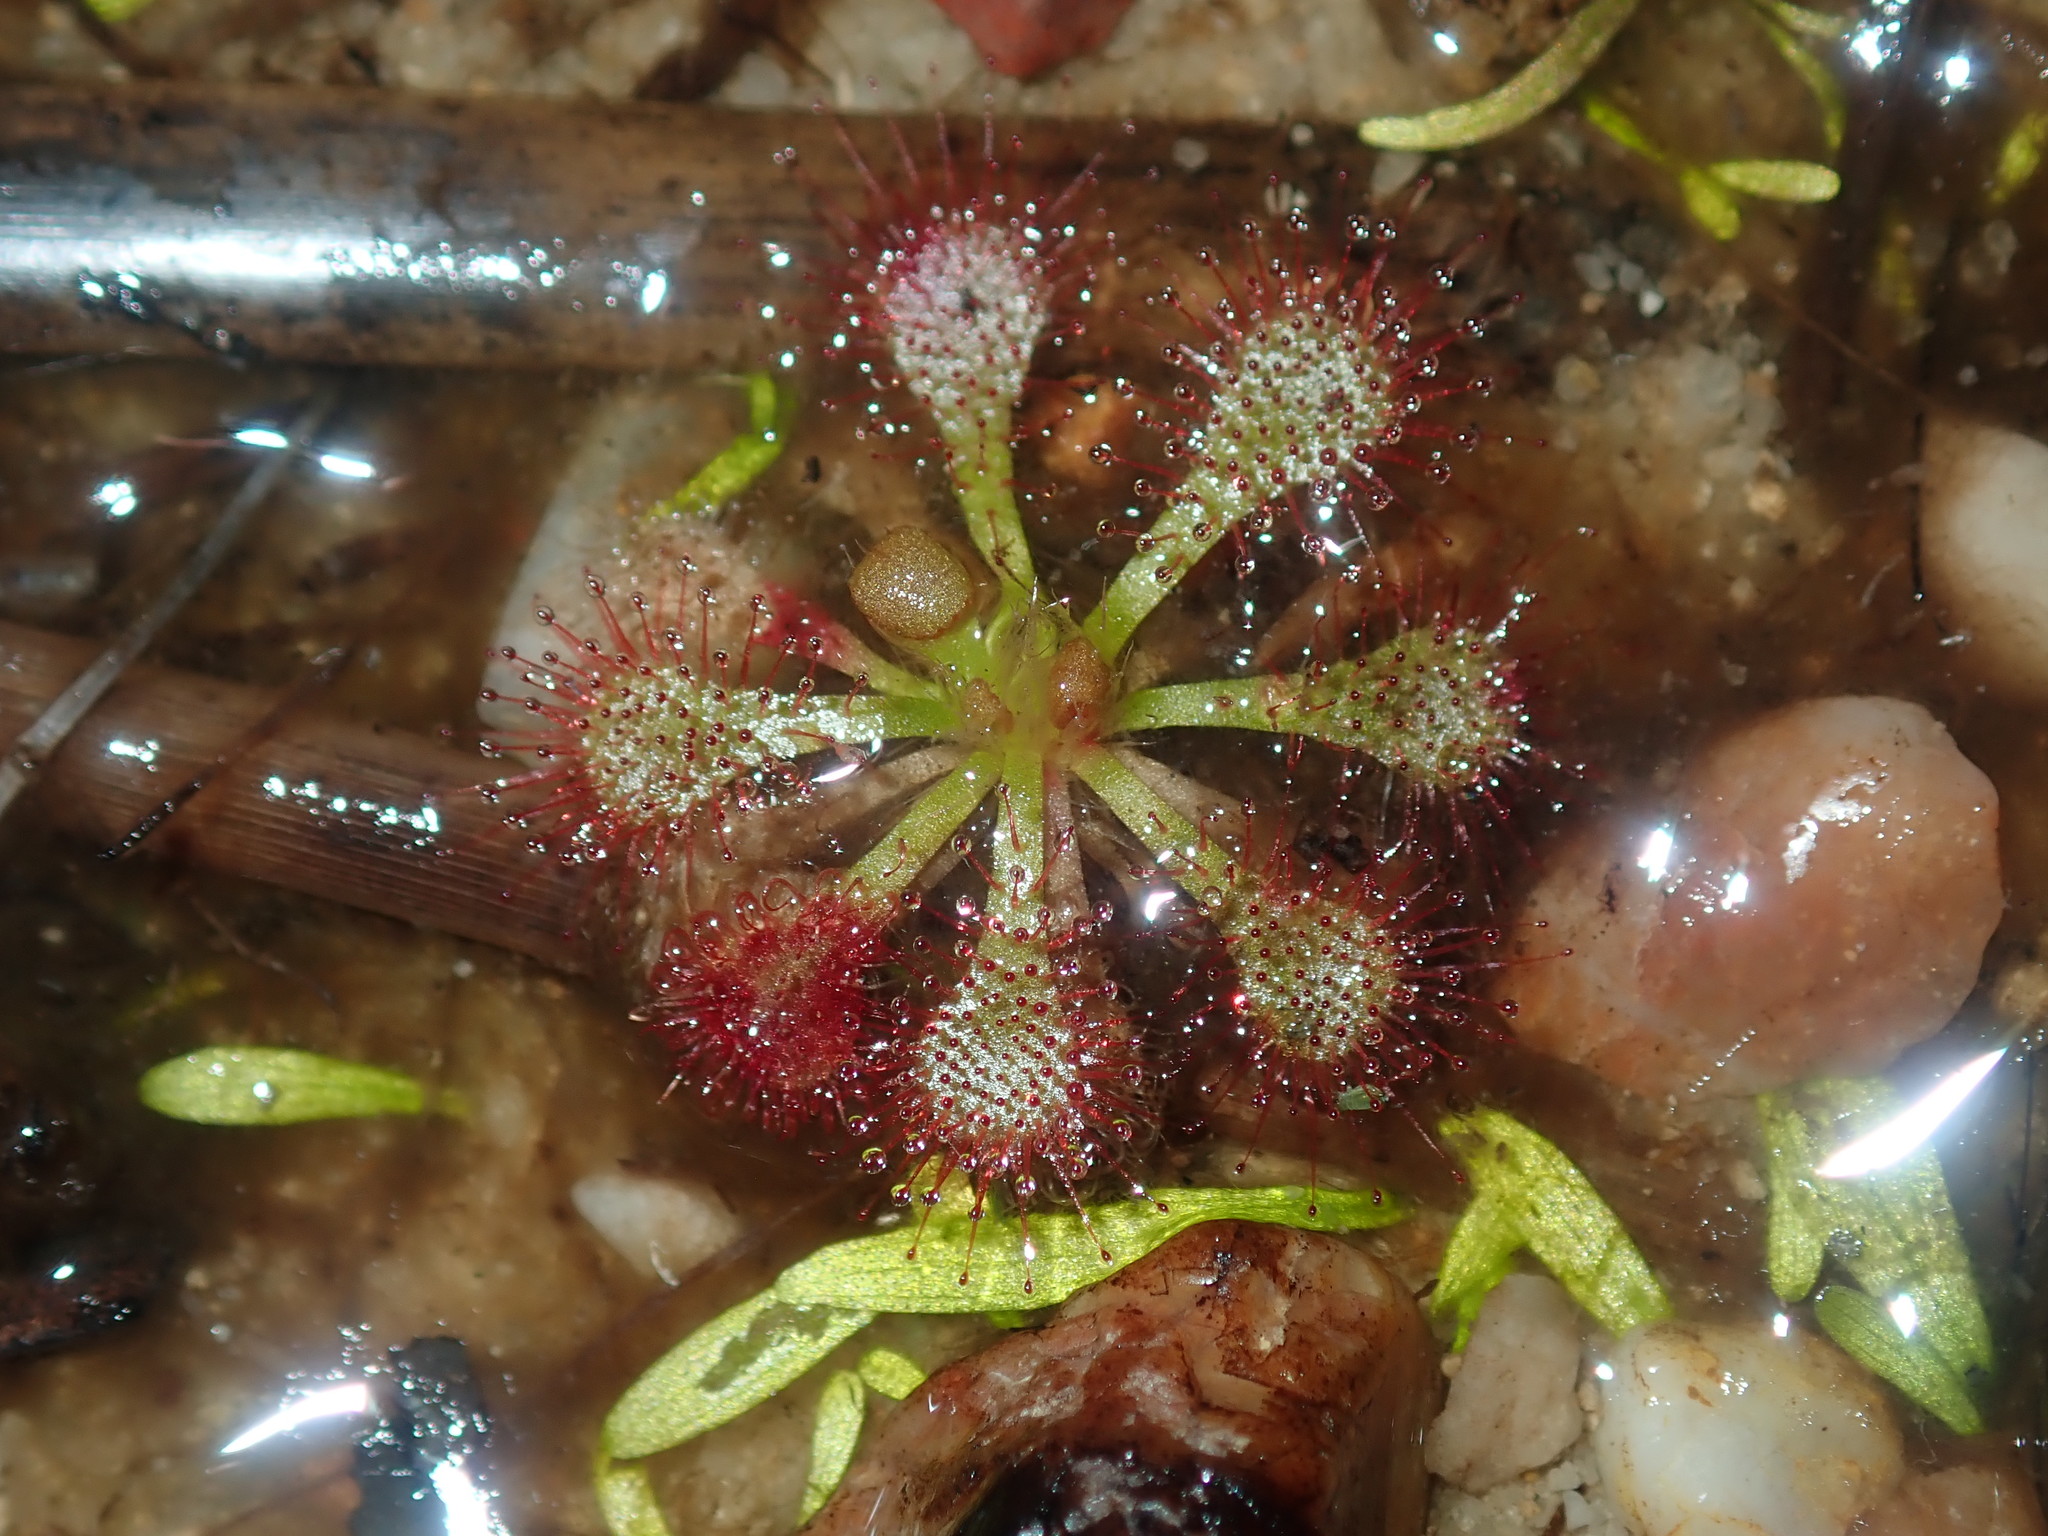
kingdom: Plantae
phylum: Tracheophyta
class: Magnoliopsida
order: Caryophyllales
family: Droseraceae
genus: Drosera
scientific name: Drosera spatulata
